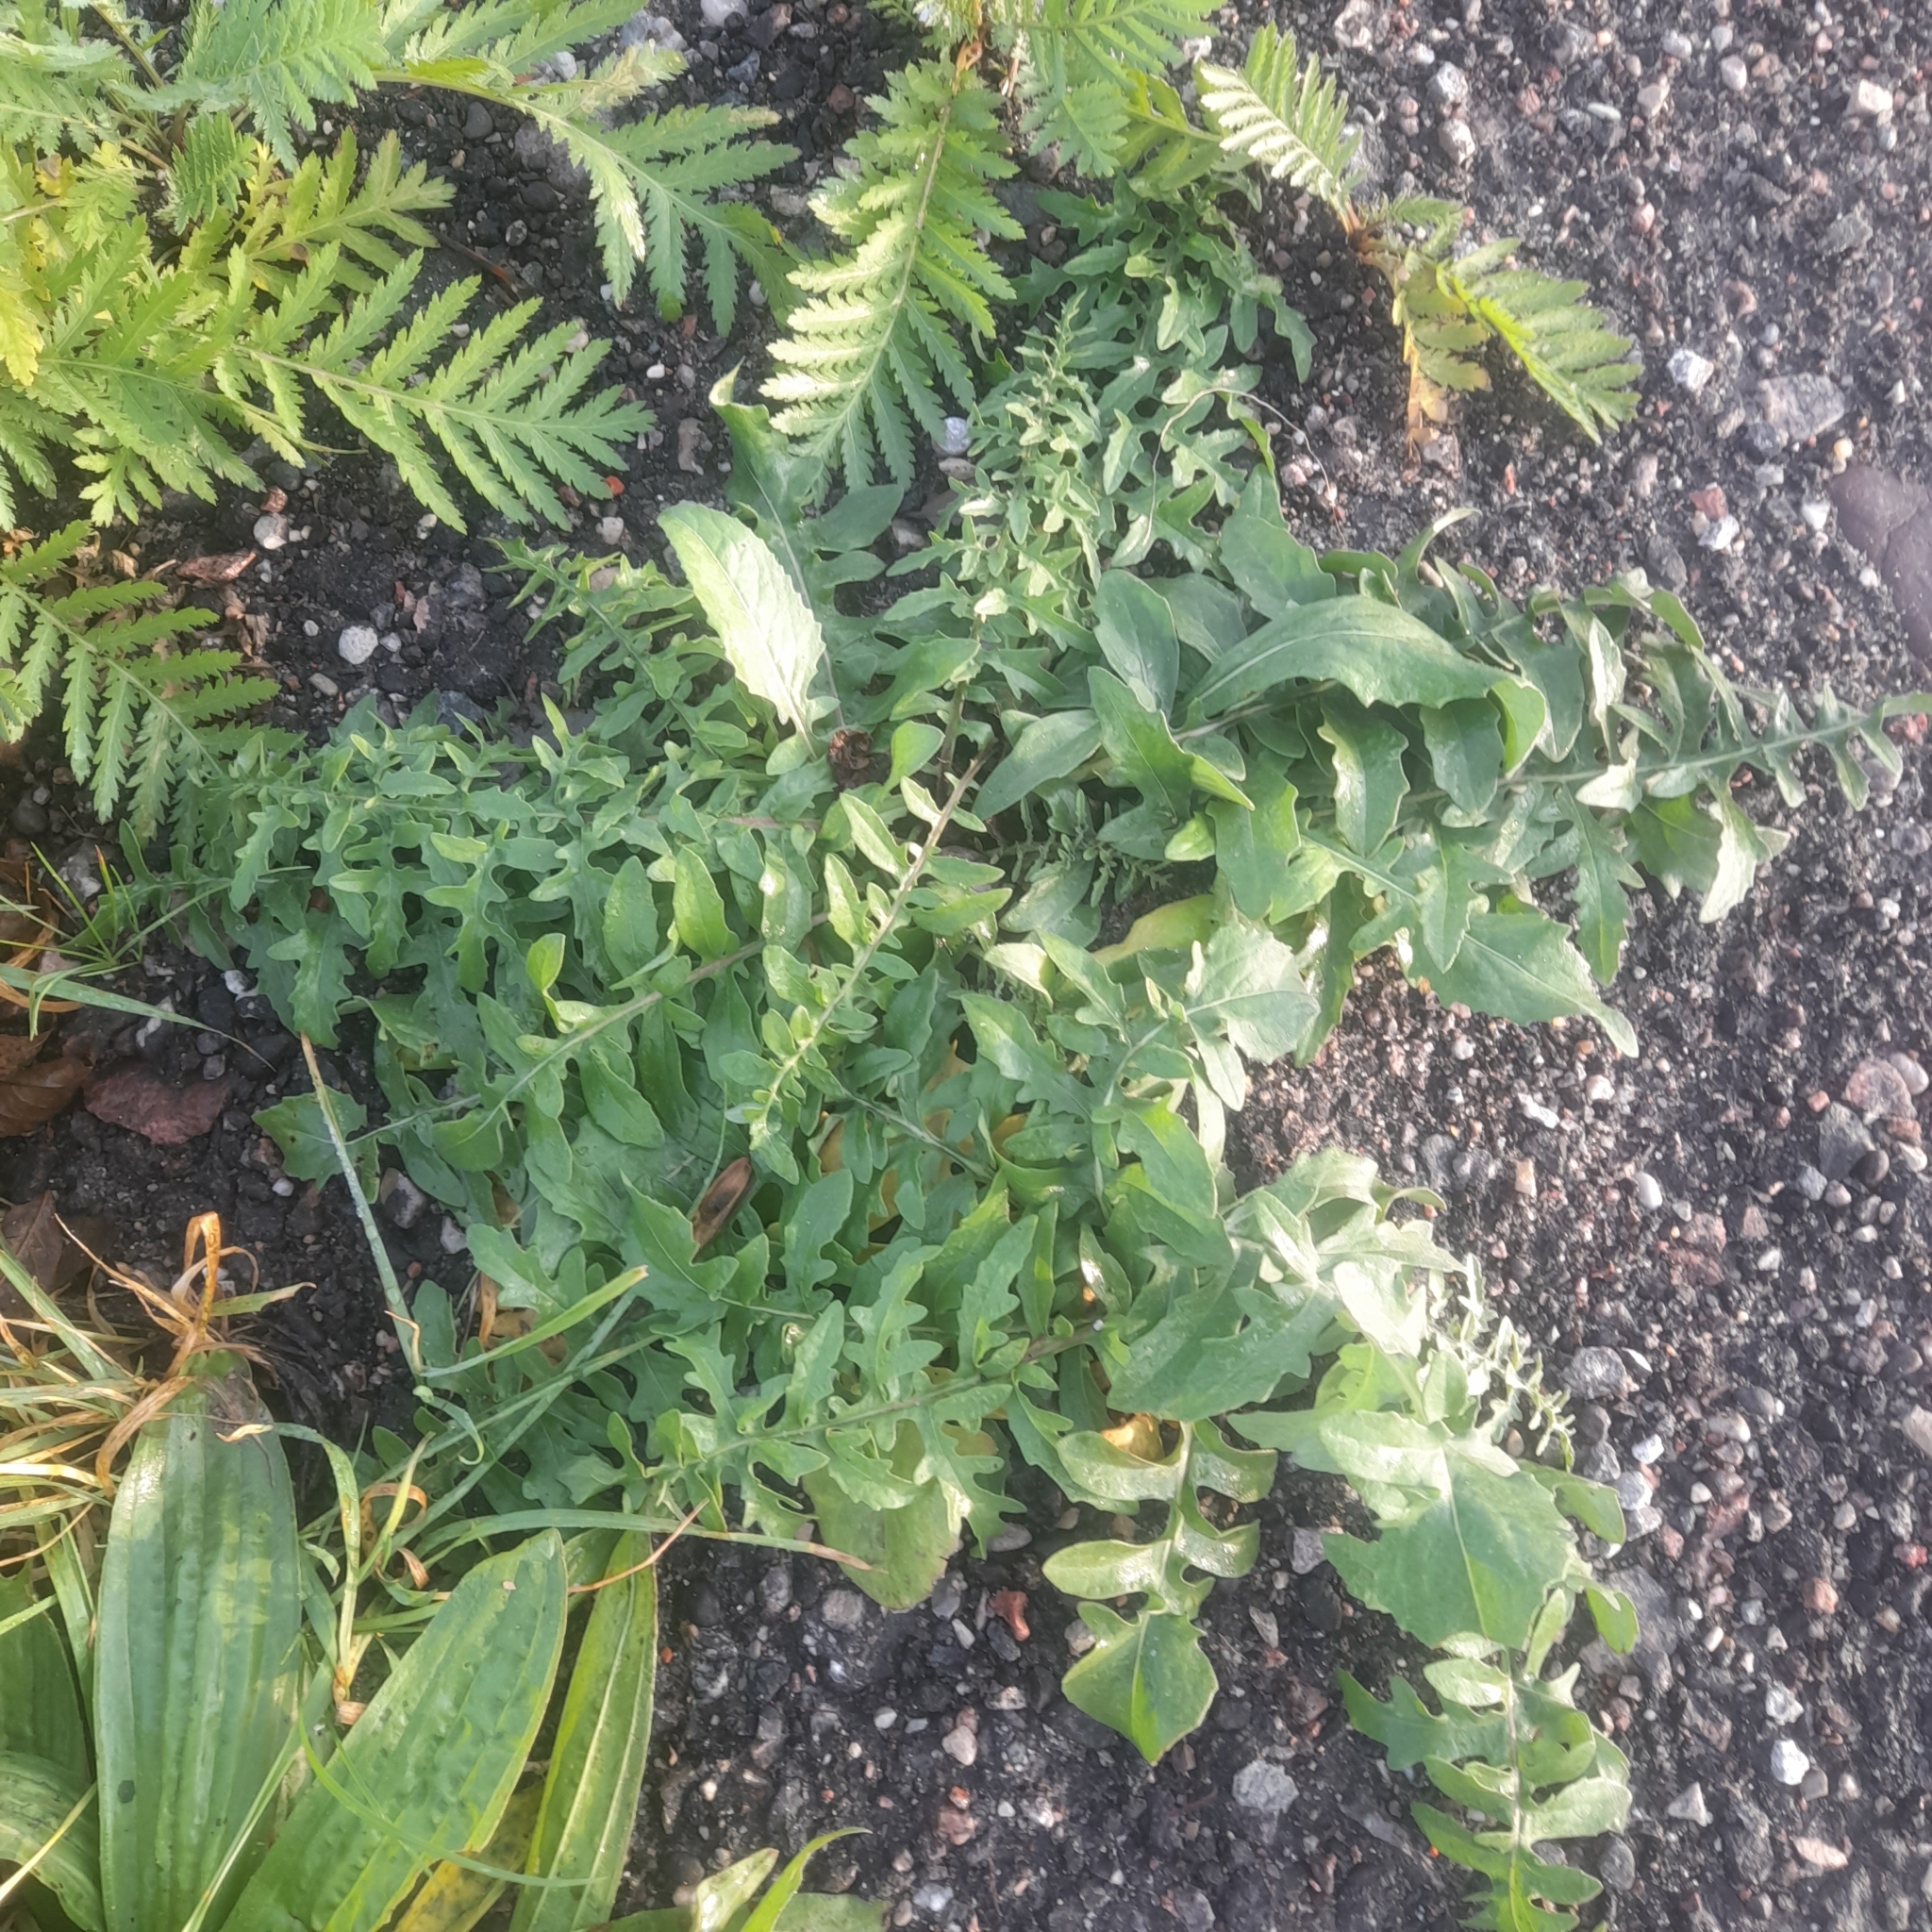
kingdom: Plantae
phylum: Tracheophyta
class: Magnoliopsida
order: Asterales
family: Asteraceae
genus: Centaurea
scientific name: Centaurea scabiosa
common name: Greater knapweed
